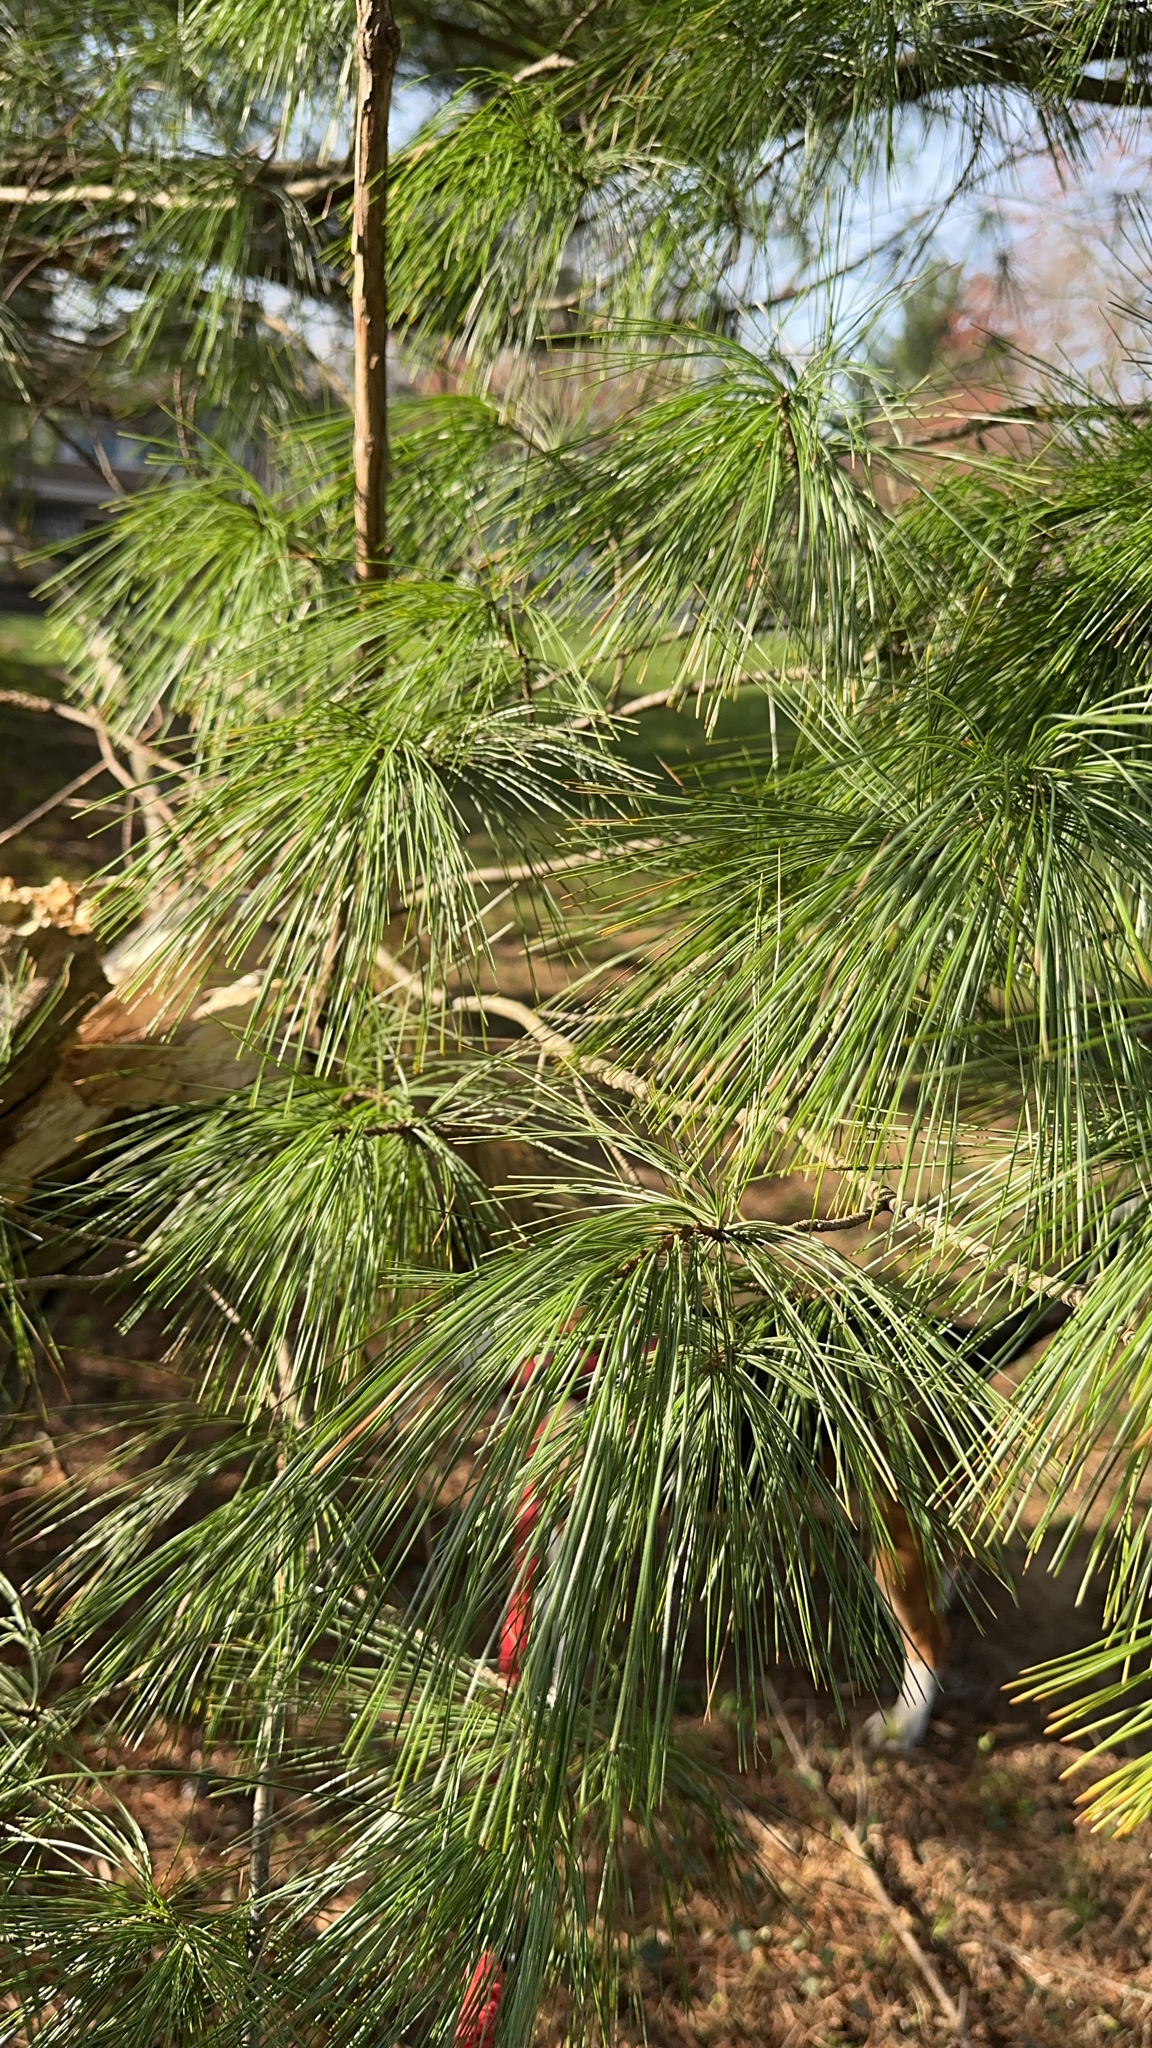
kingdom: Plantae
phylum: Tracheophyta
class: Pinopsida
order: Pinales
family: Pinaceae
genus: Pinus
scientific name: Pinus strobus
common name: Weymouth pine
